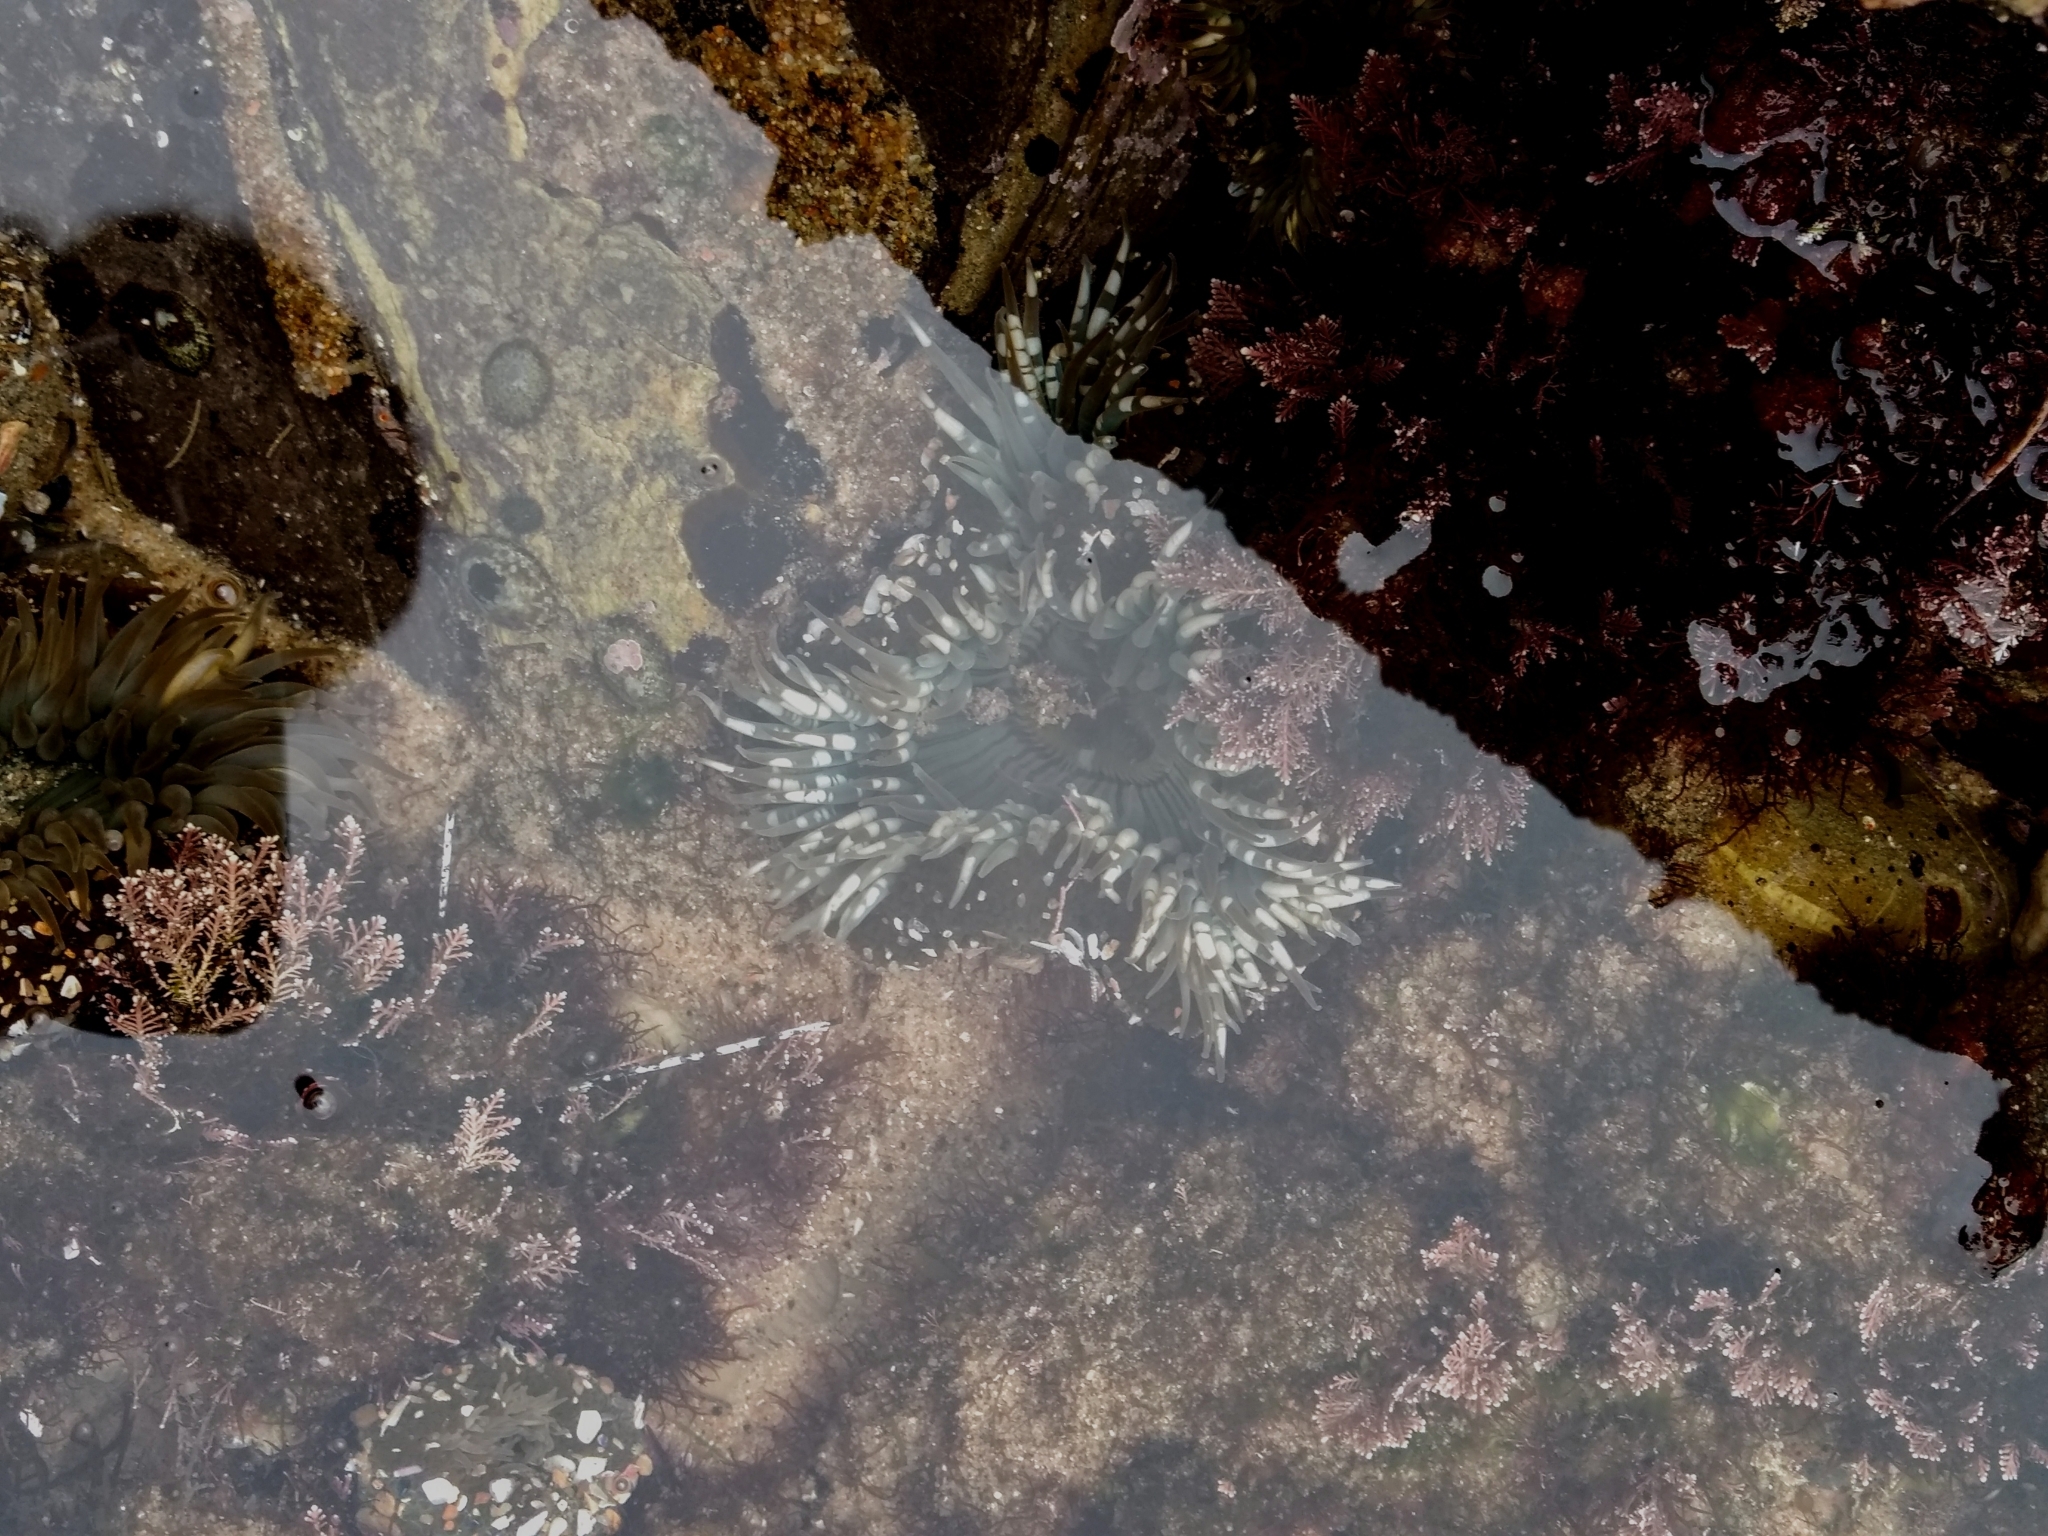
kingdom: Animalia
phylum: Cnidaria
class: Anthozoa
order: Actiniaria
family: Actiniidae
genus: Anthopleura
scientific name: Anthopleura sola
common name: Sun anemone
